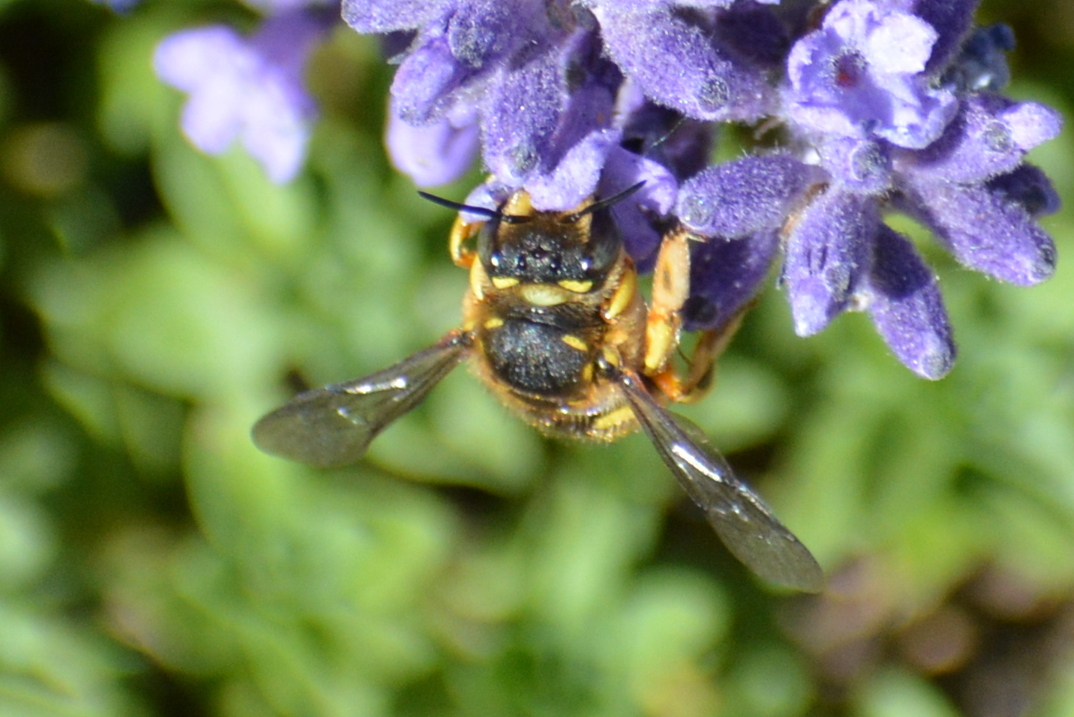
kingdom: Animalia
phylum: Arthropoda
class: Insecta
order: Hymenoptera
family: Megachilidae
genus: Anthidium
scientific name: Anthidium manicatum
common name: Wool carder bee
